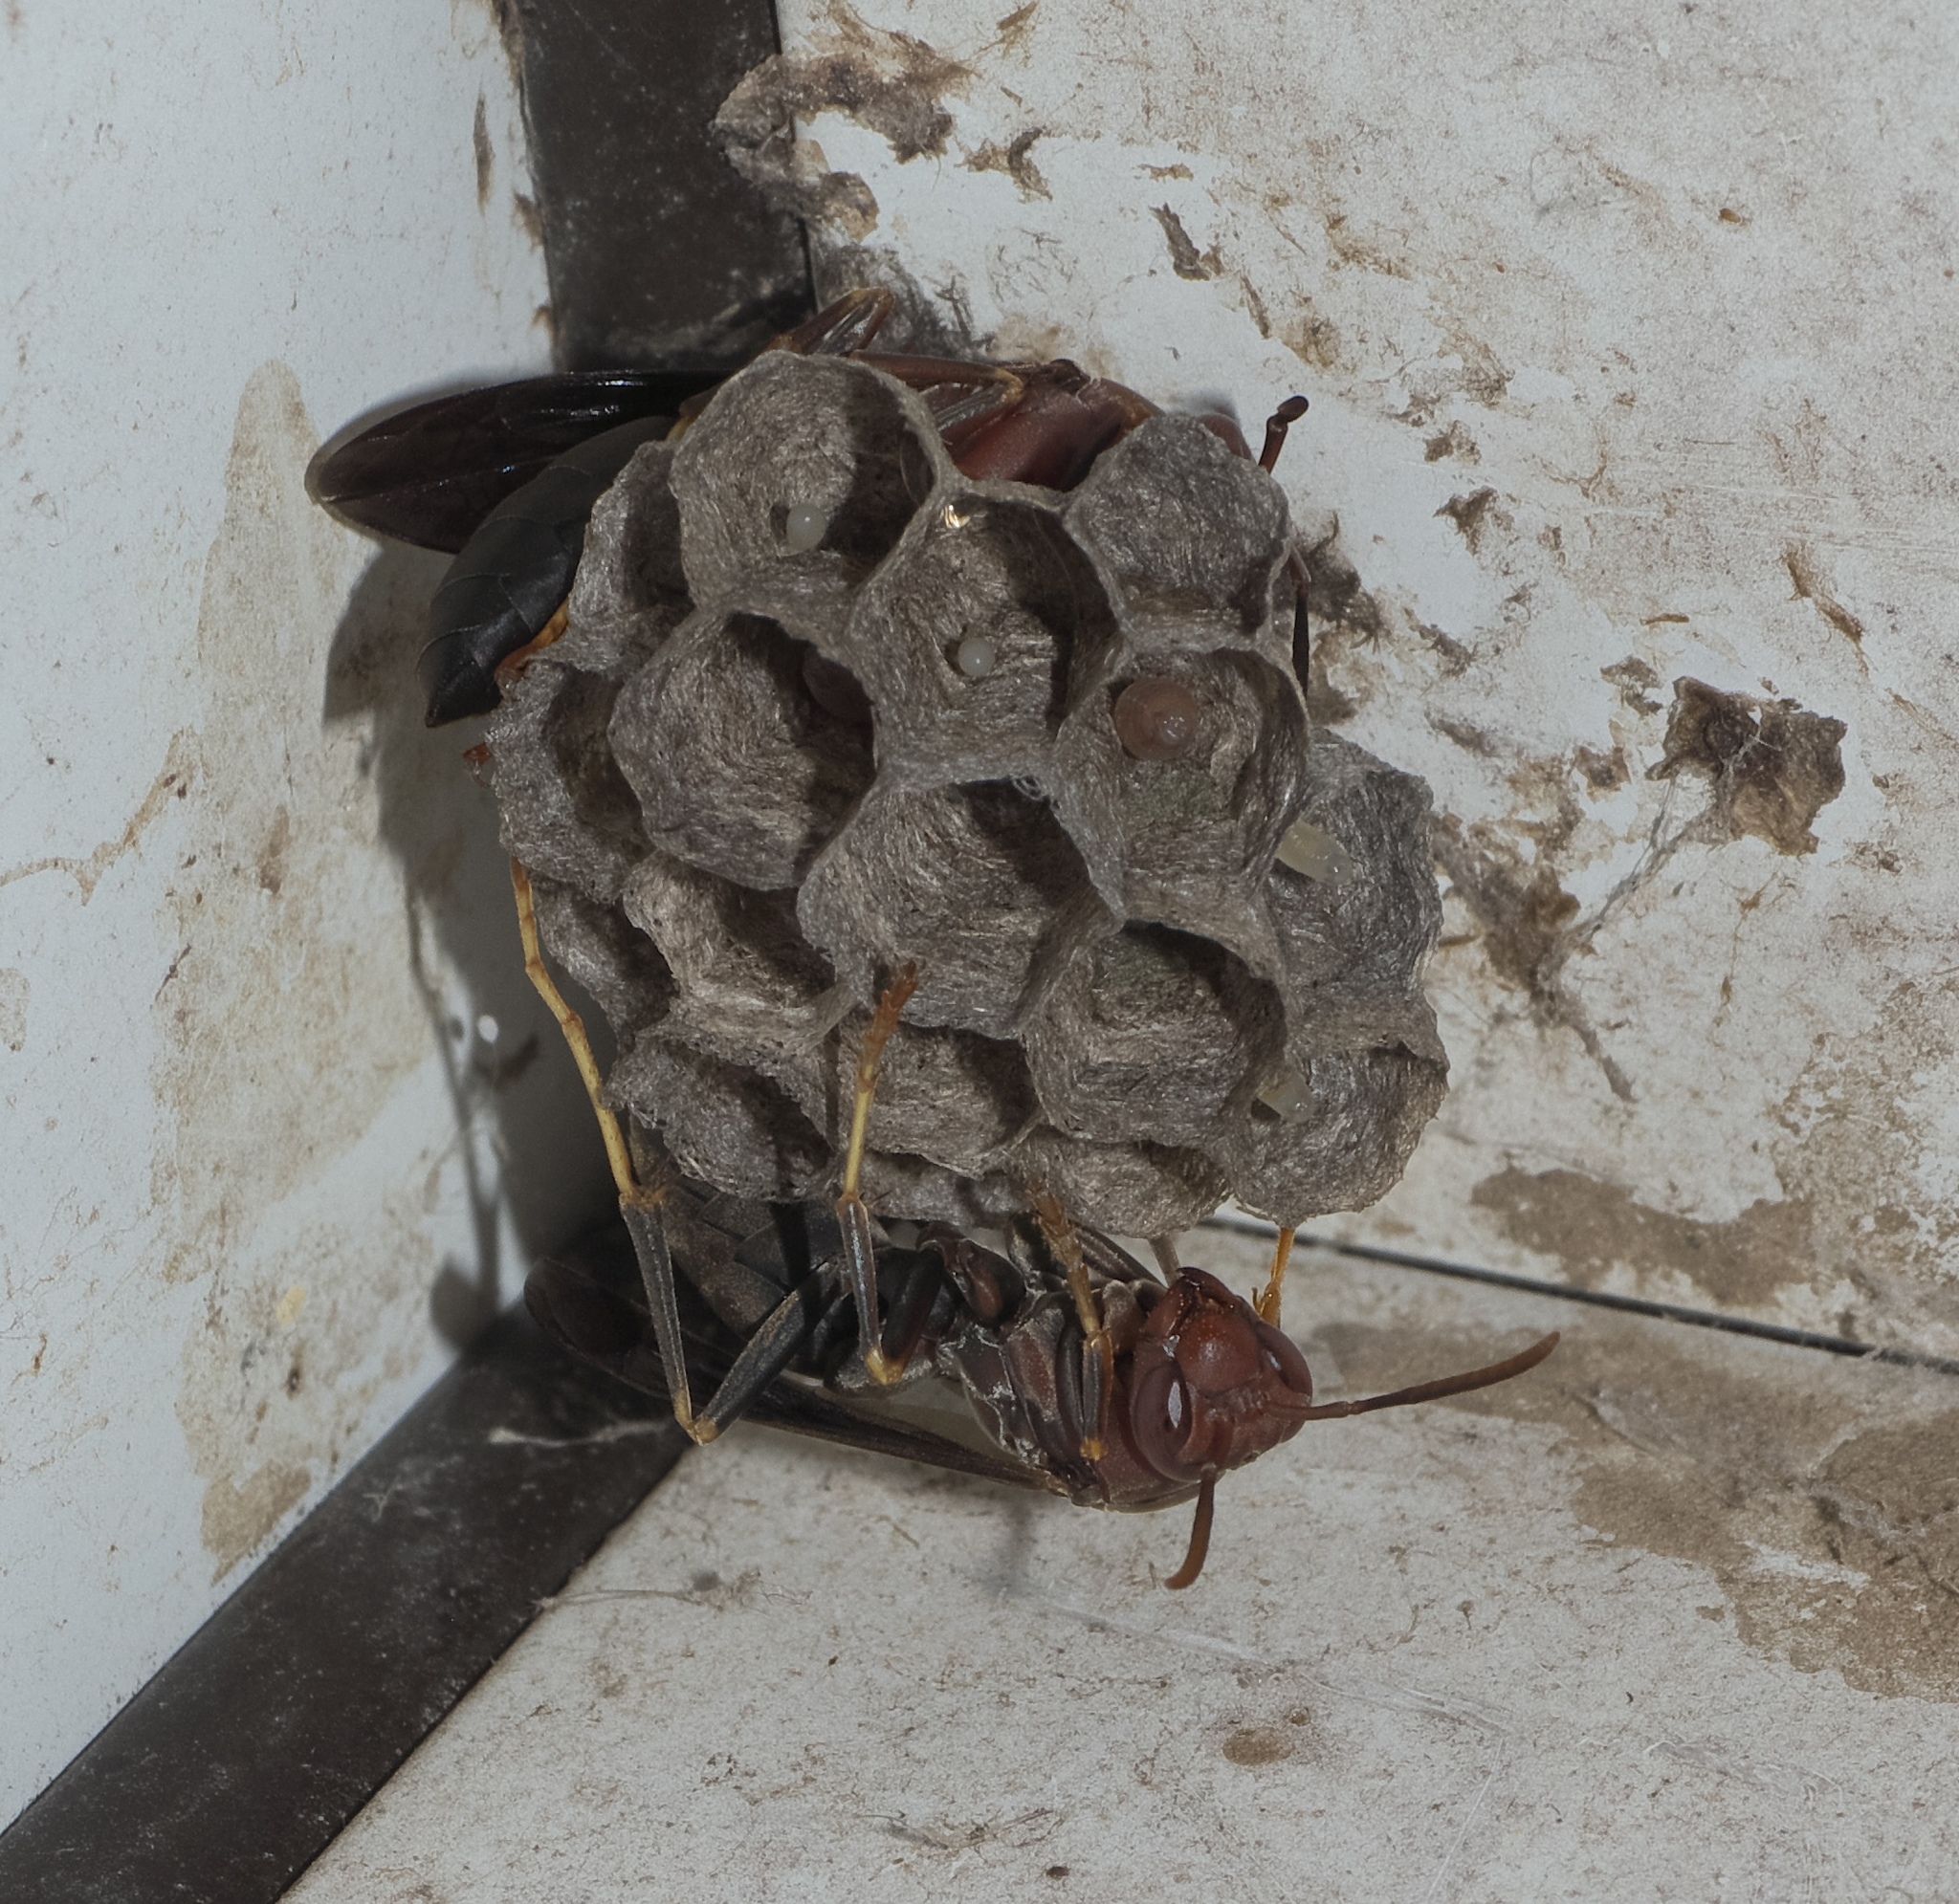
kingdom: Animalia
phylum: Arthropoda
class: Insecta
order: Hymenoptera
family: Eumenidae
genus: Polistes
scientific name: Polistes metricus
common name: Metric paper wasp
